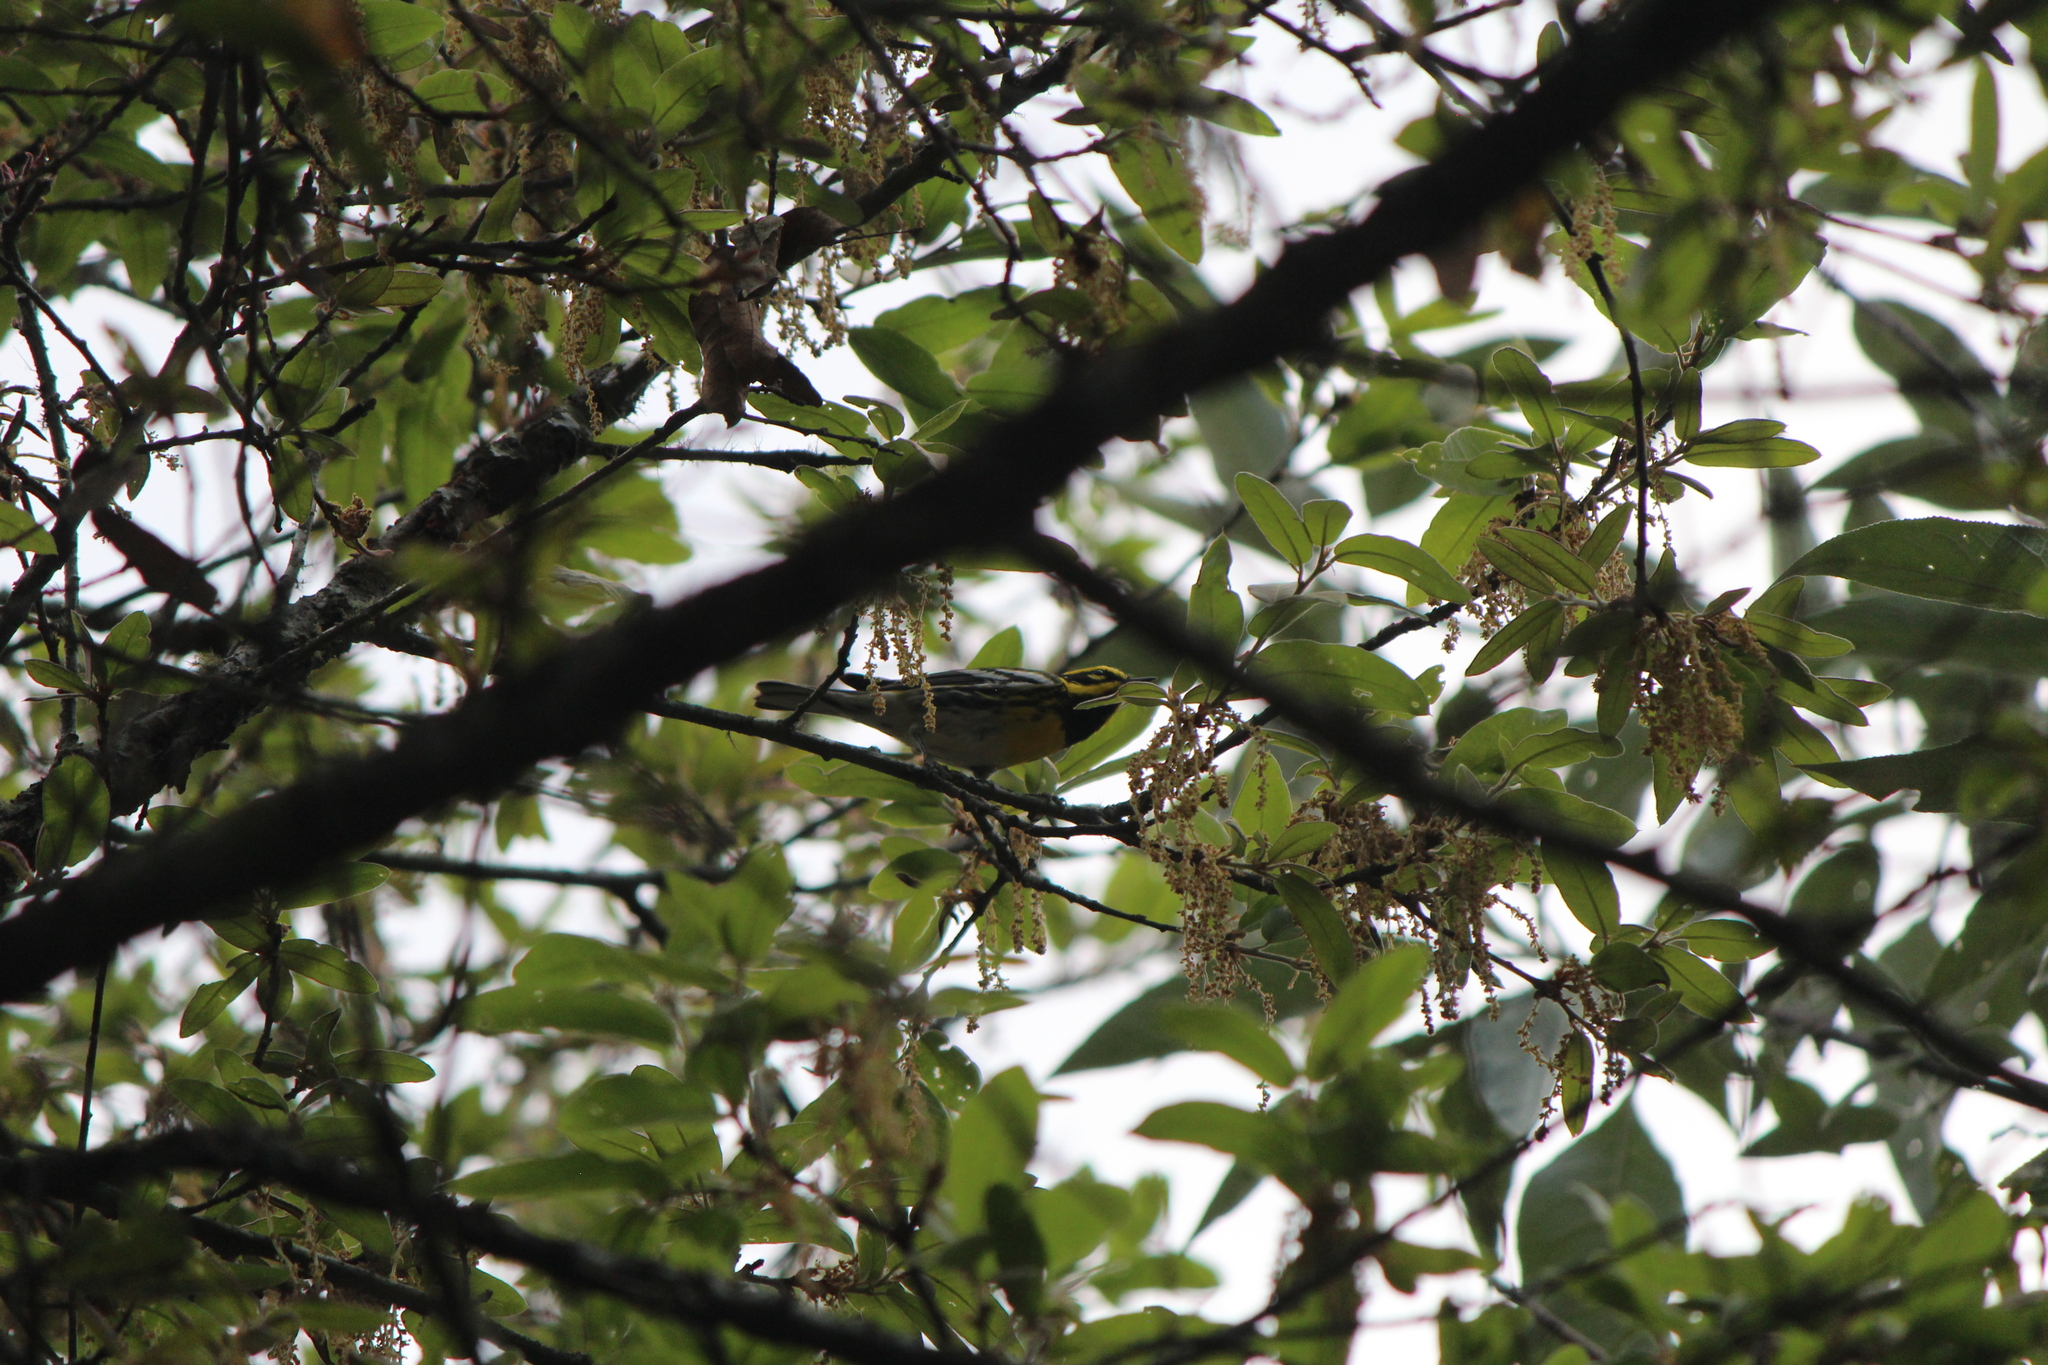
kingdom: Animalia
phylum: Chordata
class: Aves
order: Passeriformes
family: Parulidae
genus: Setophaga
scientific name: Setophaga townsendi
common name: Townsend's warbler
